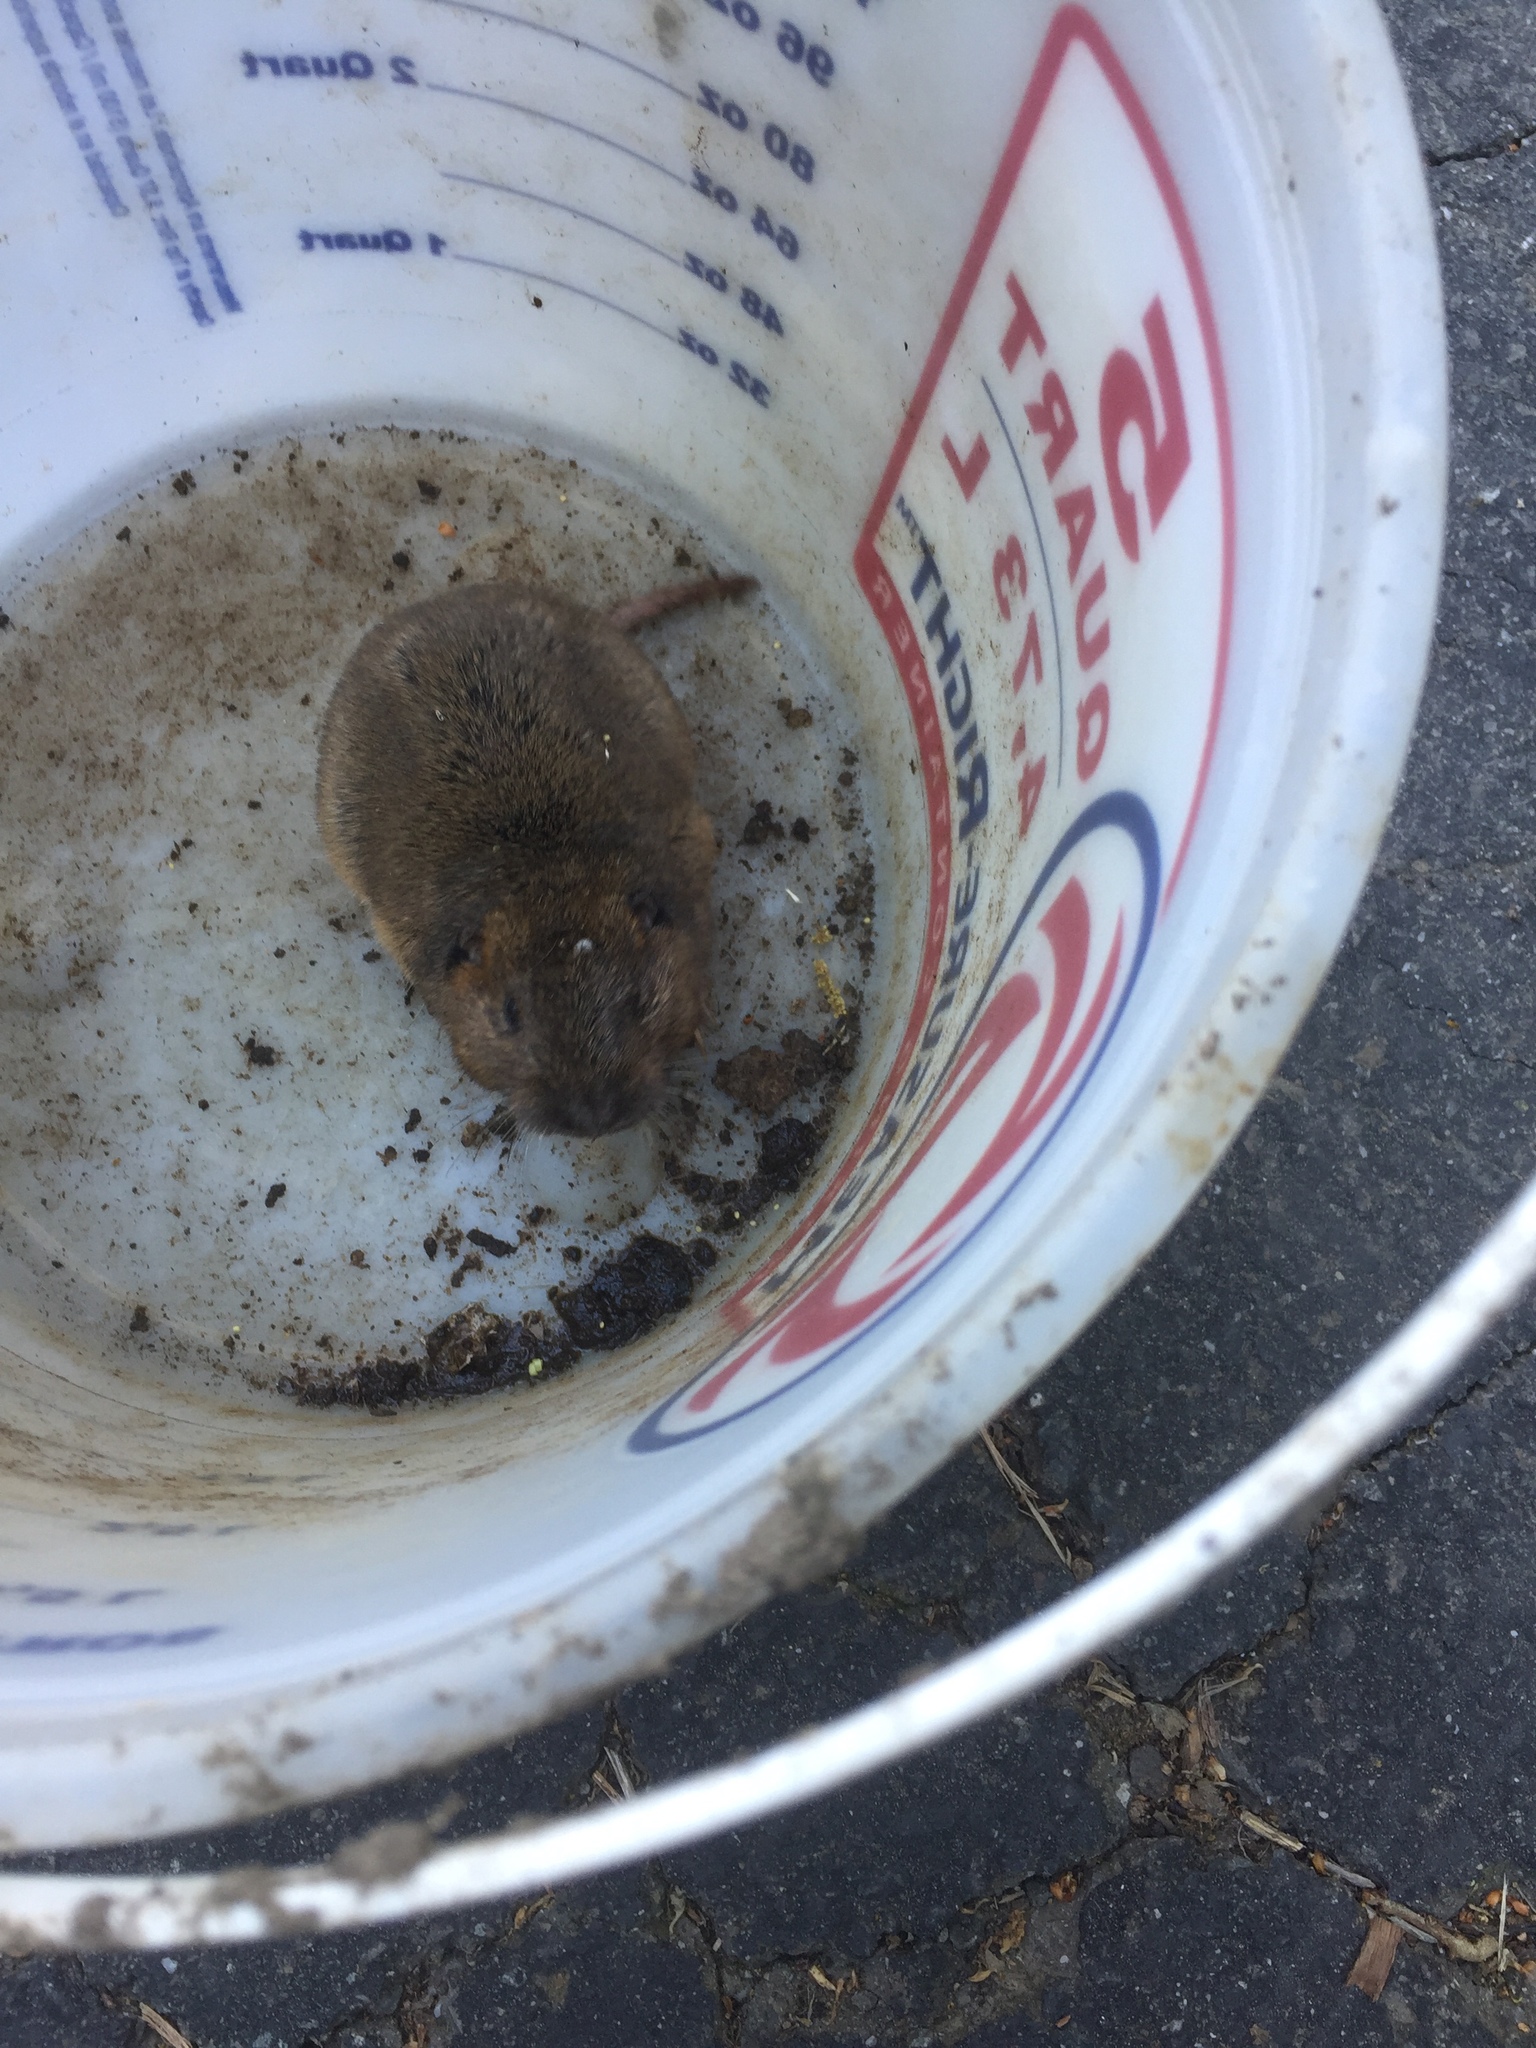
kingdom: Animalia
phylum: Chordata
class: Mammalia
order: Rodentia
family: Geomyidae
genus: Thomomys
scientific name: Thomomys bottae
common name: Botta's pocket gopher
